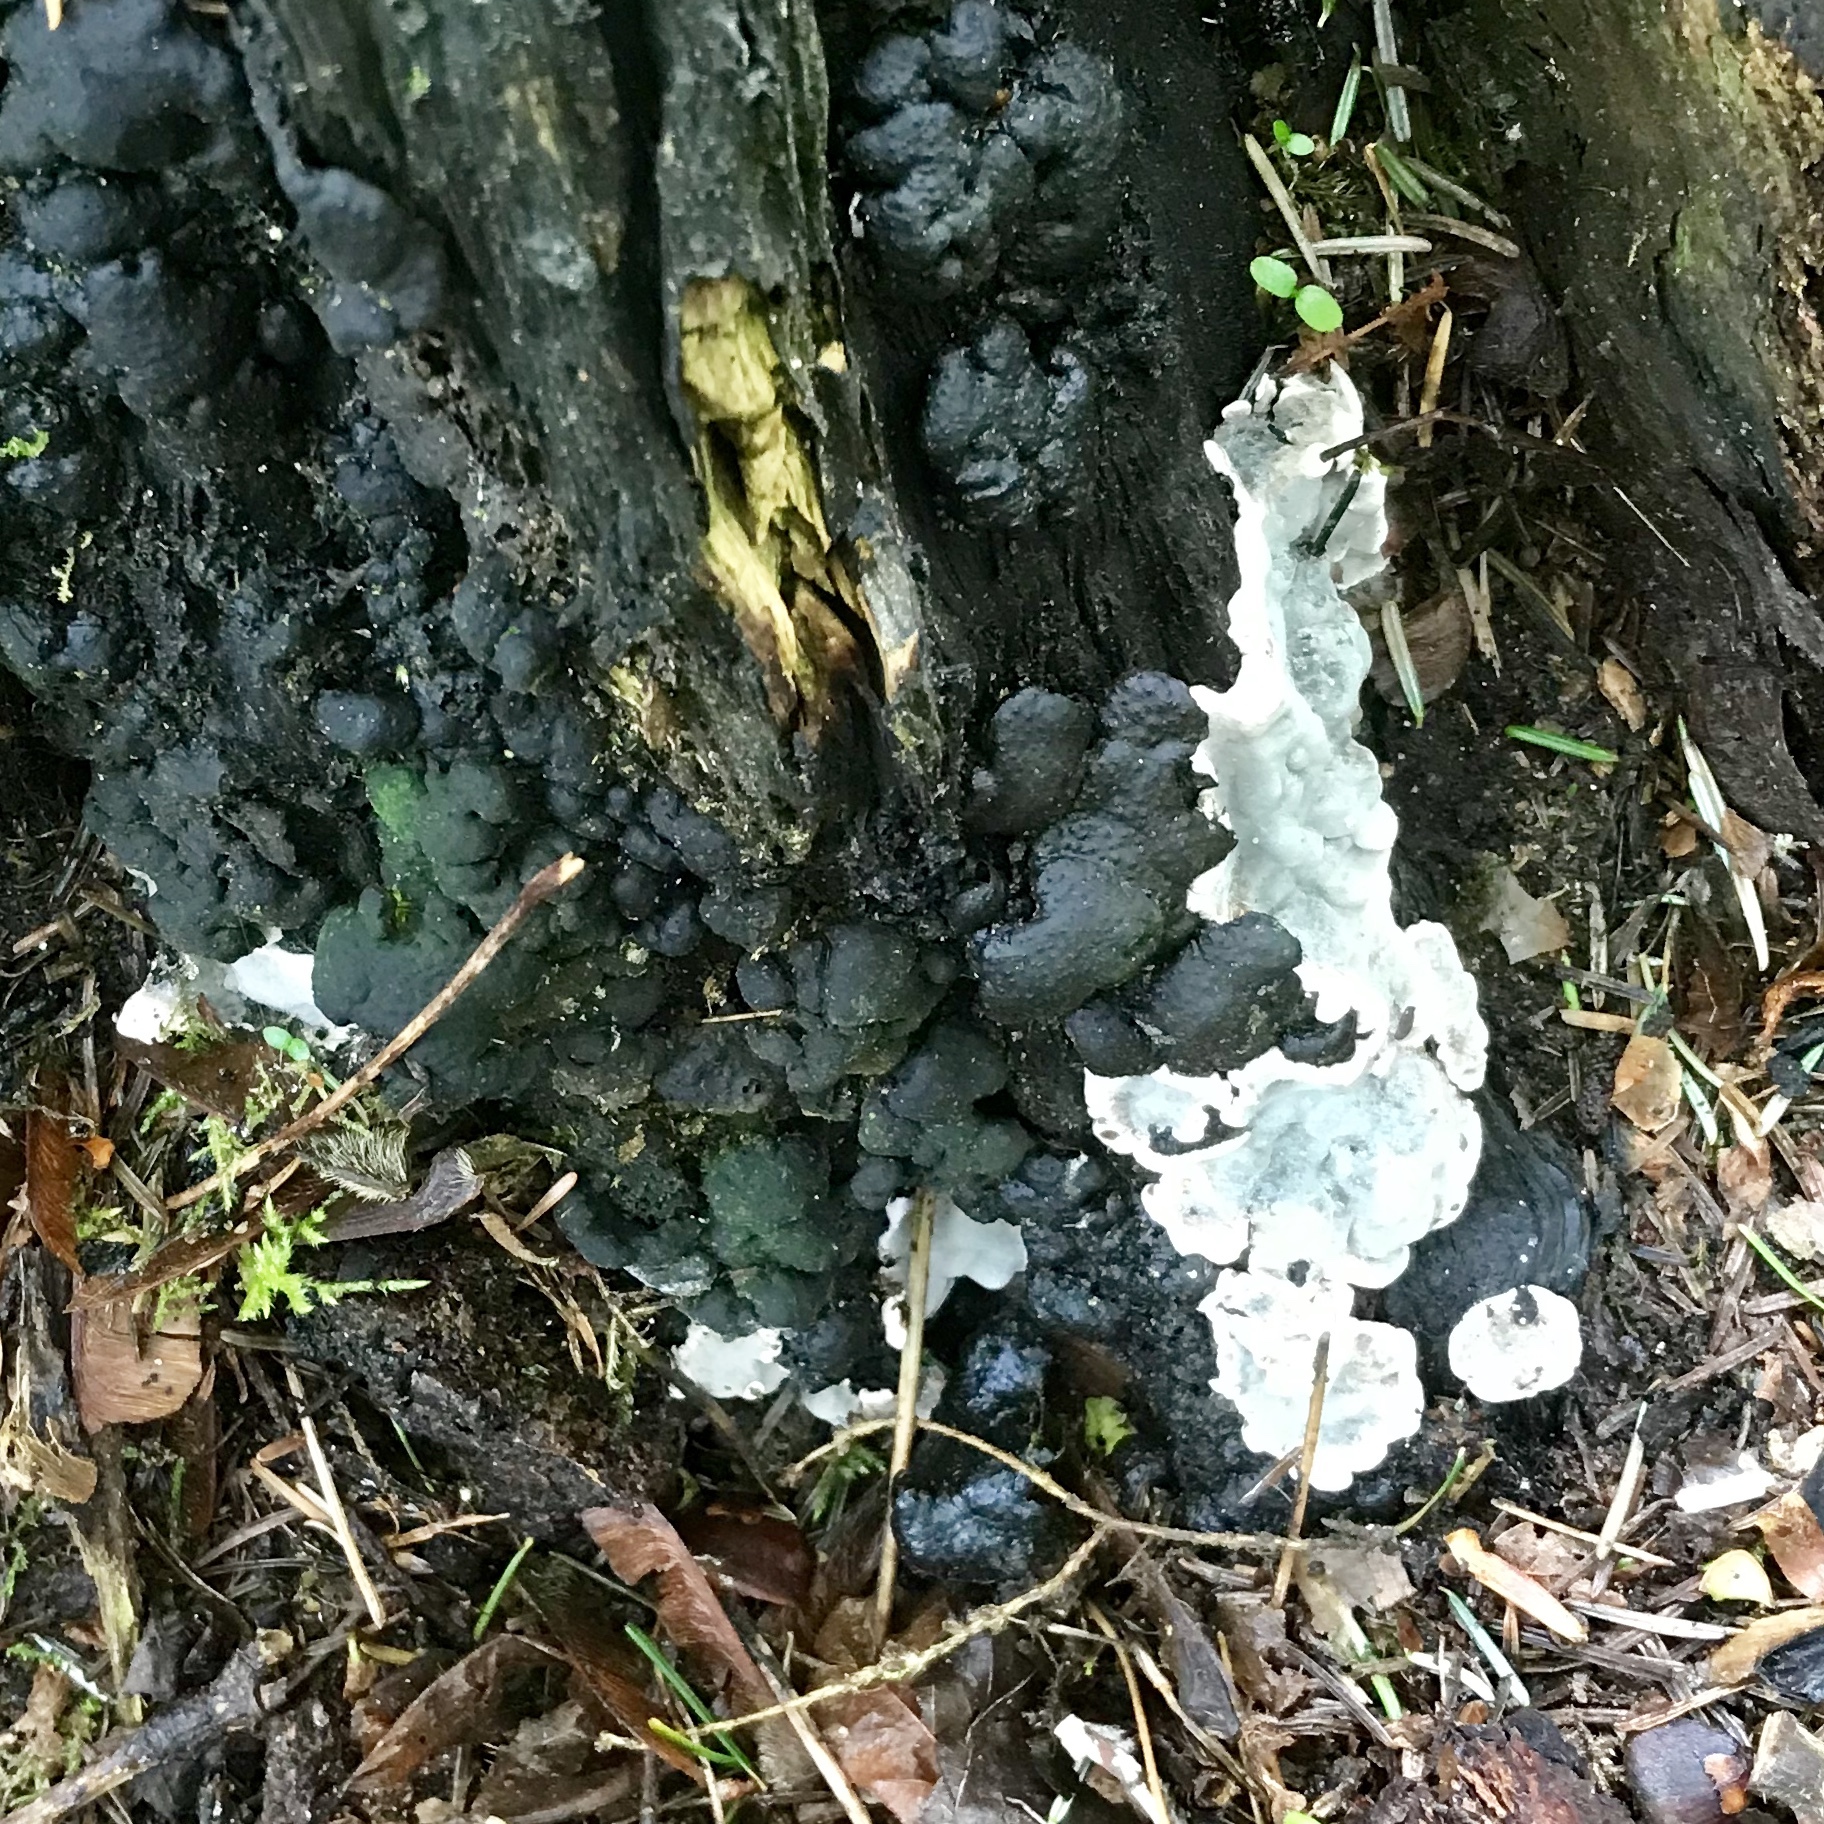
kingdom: Fungi
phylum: Ascomycota
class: Sordariomycetes
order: Xylariales
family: Xylariaceae
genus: Kretzschmaria
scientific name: Kretzschmaria deusta
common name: Brittle cinder
